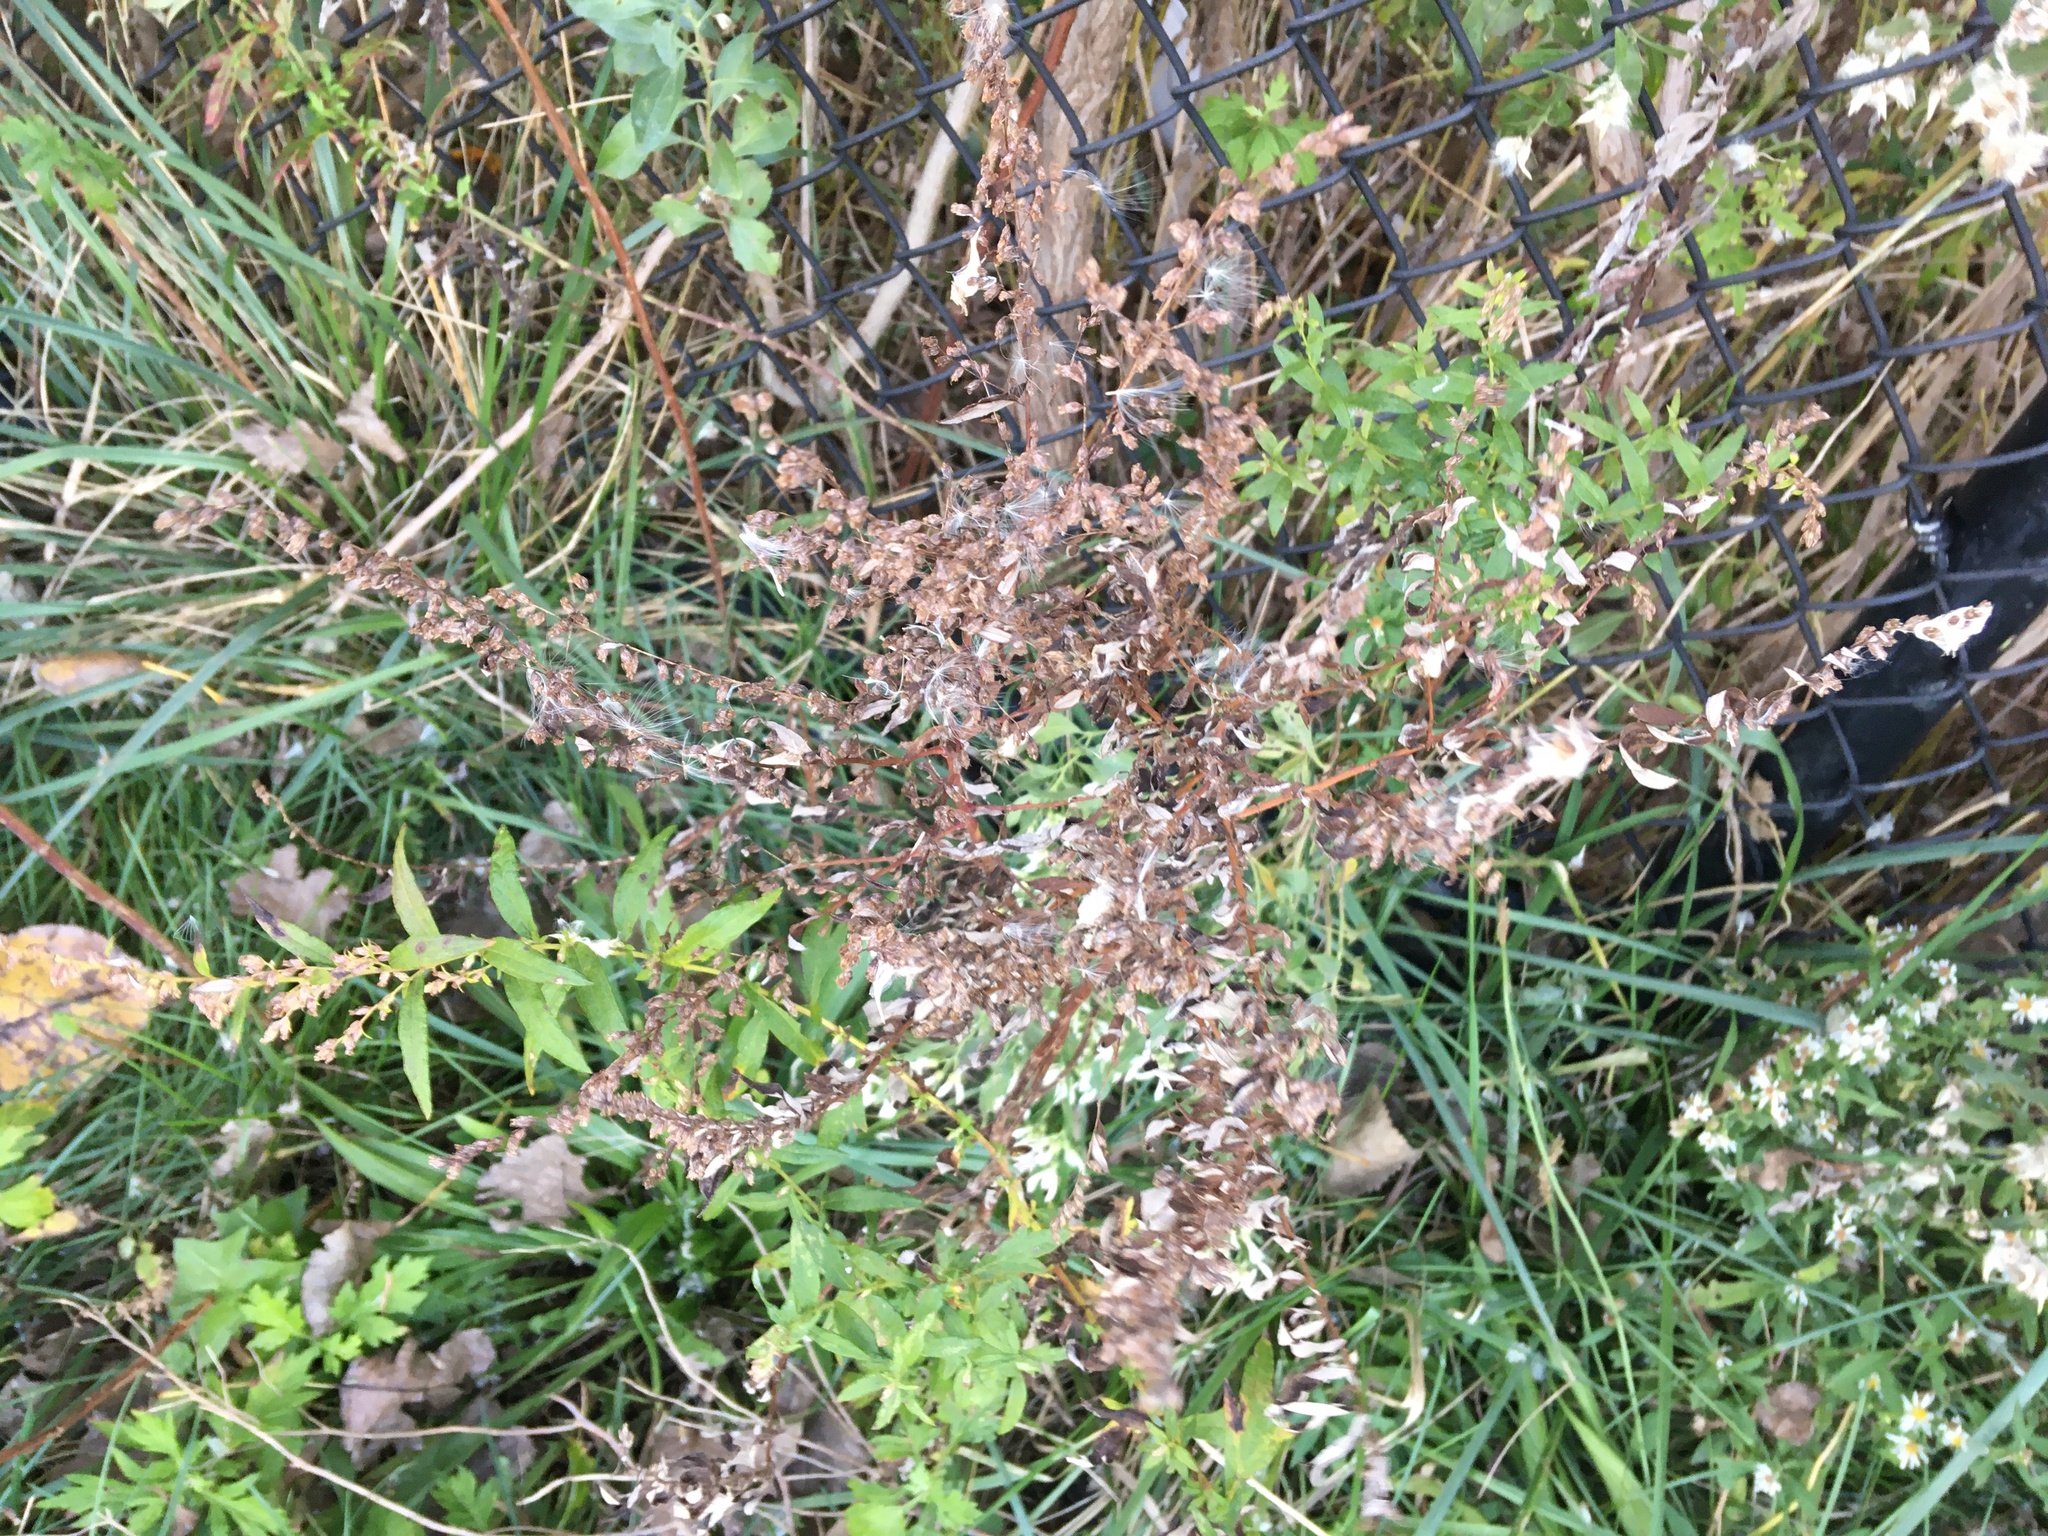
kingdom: Plantae
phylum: Tracheophyta
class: Magnoliopsida
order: Asterales
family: Asteraceae
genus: Artemisia
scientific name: Artemisia vulgaris
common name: Mugwort
